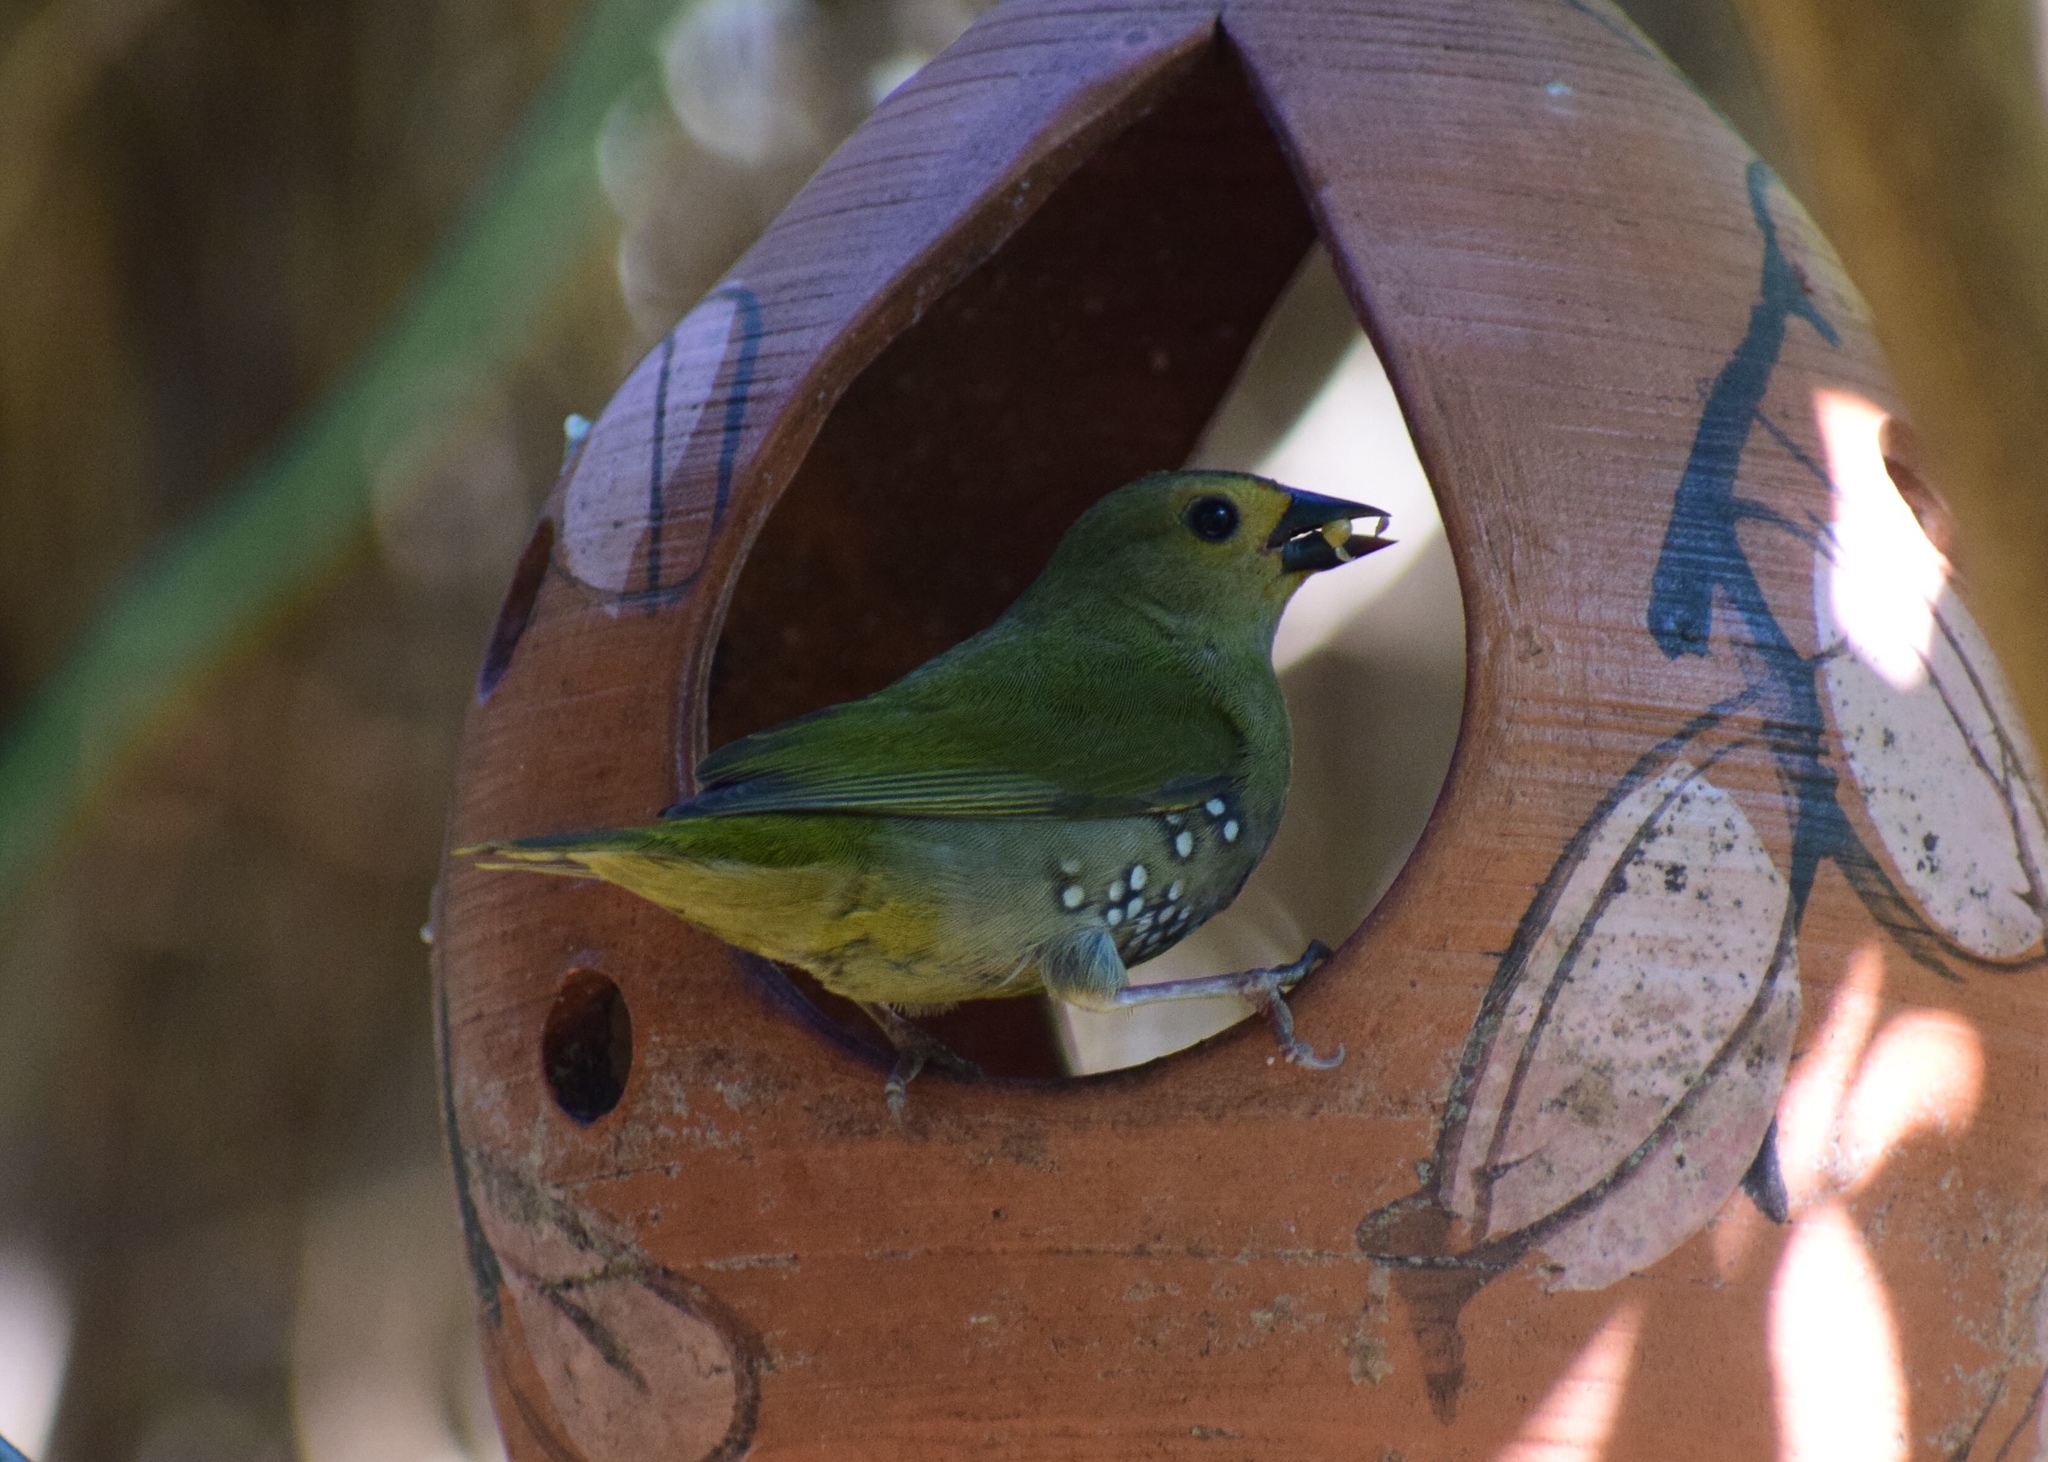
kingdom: Animalia
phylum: Chordata
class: Aves
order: Passeriformes
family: Estrildidae
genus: Mandingoa
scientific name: Mandingoa nitidula
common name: Green twinspot
